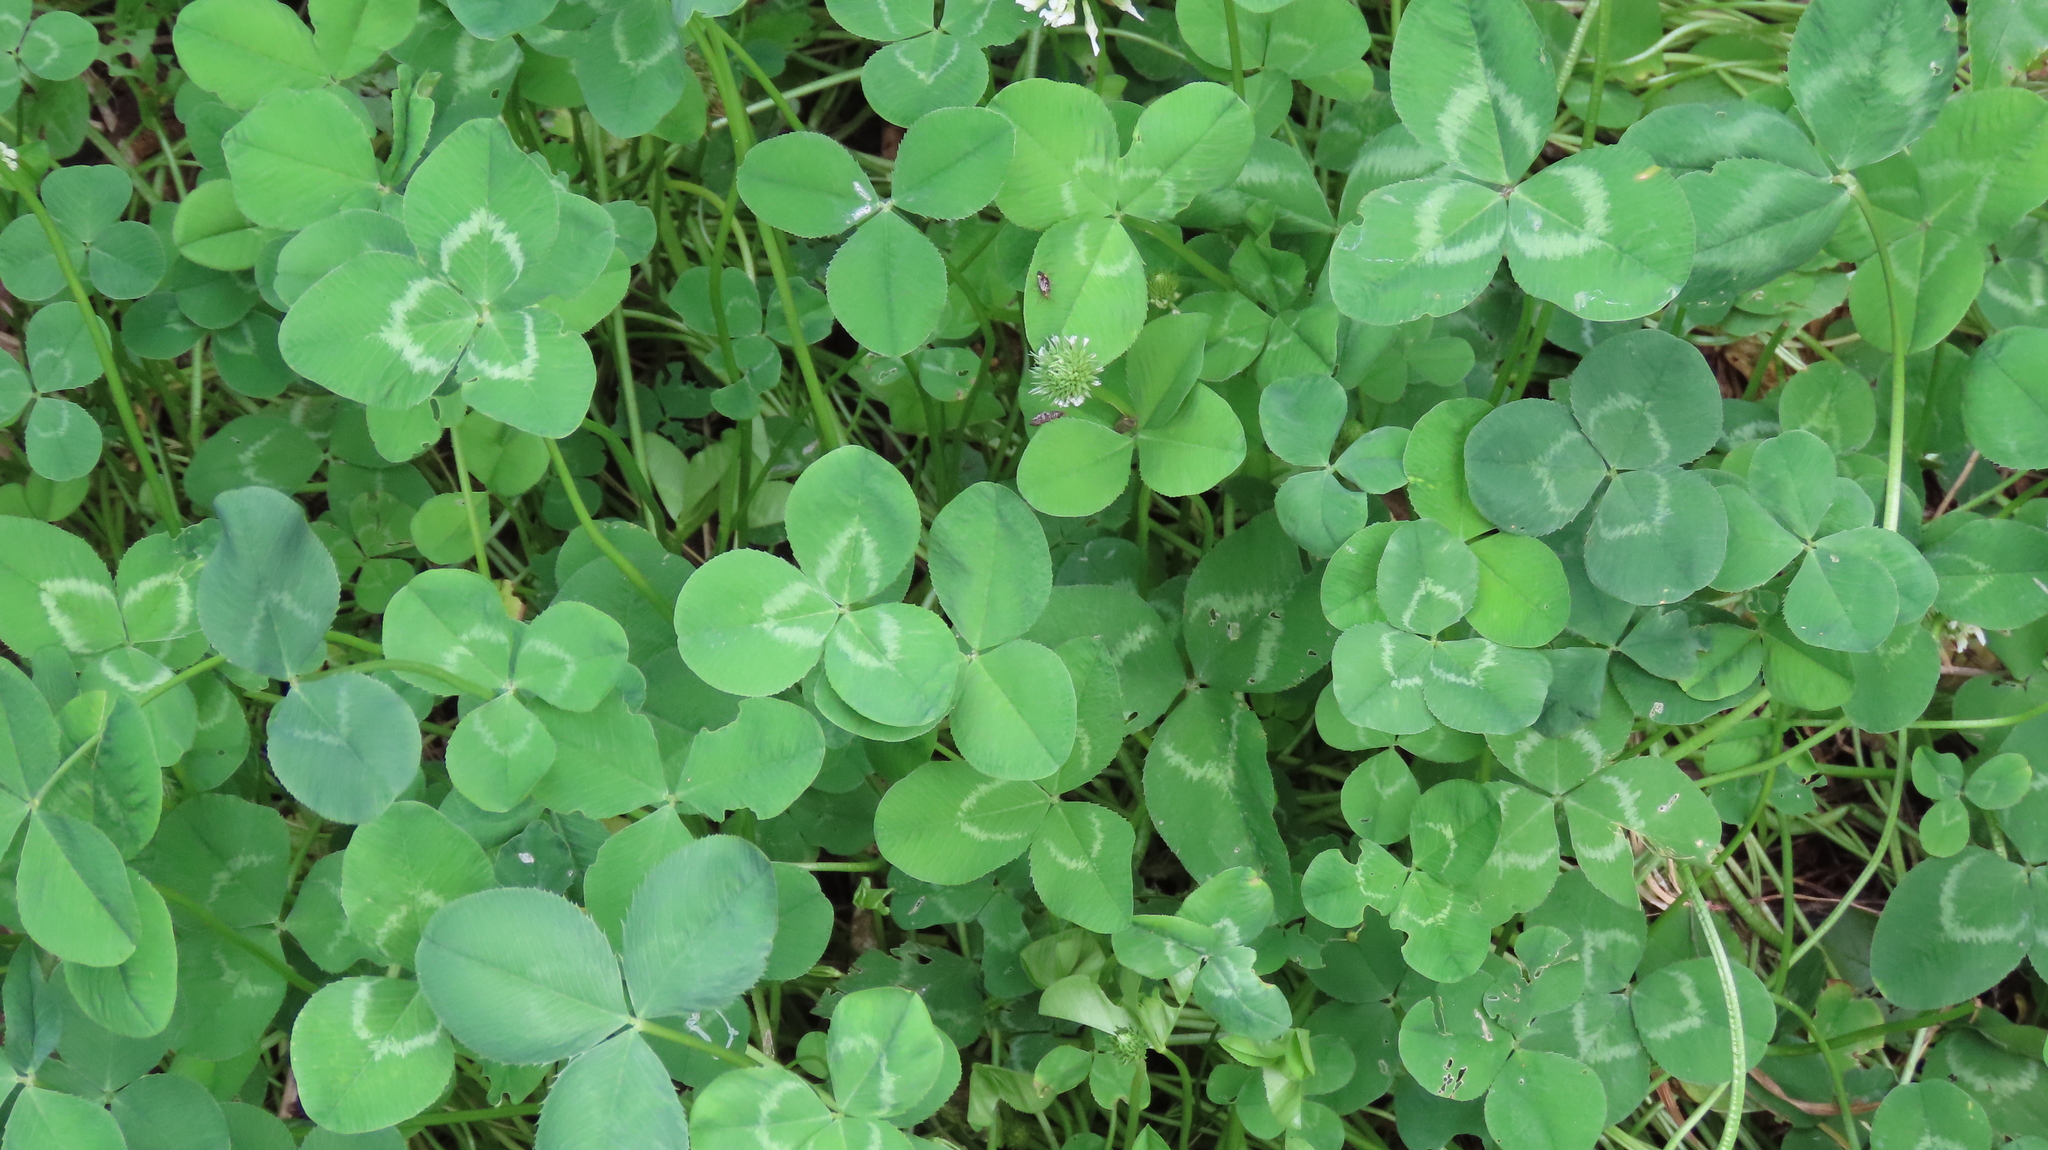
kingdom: Plantae
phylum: Tracheophyta
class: Magnoliopsida
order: Fabales
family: Fabaceae
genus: Trifolium
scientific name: Trifolium repens
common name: White clover
